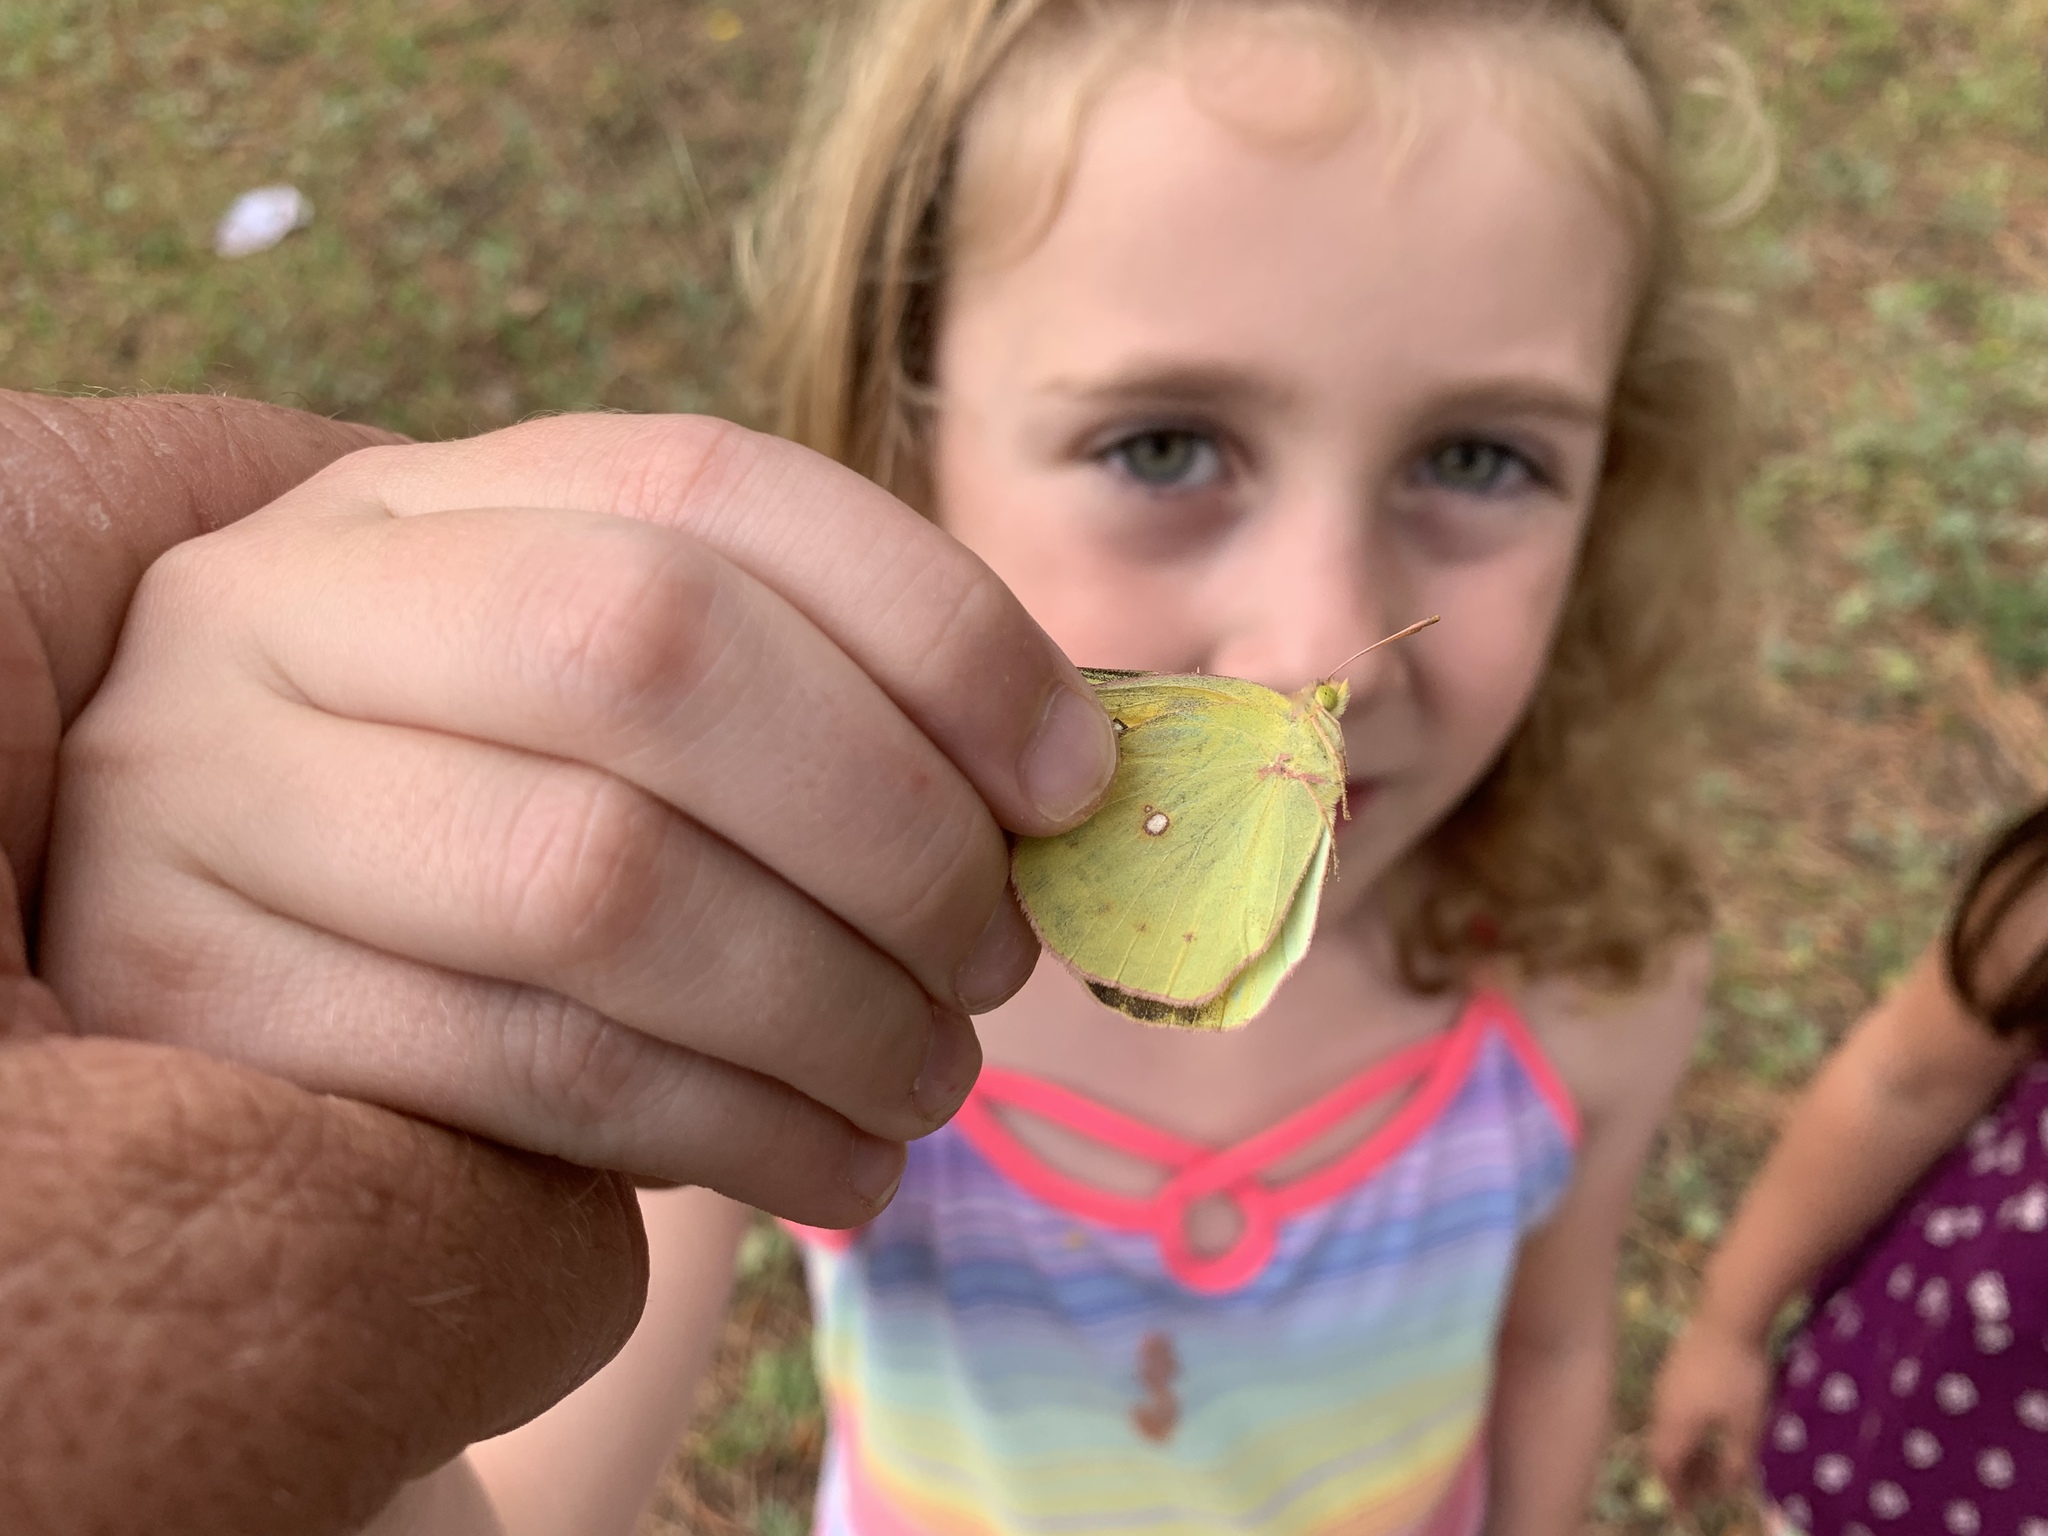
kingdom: Animalia
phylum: Arthropoda
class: Insecta
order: Lepidoptera
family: Pieridae
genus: Colias
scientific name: Colias eurytheme
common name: Alfalfa butterfly
